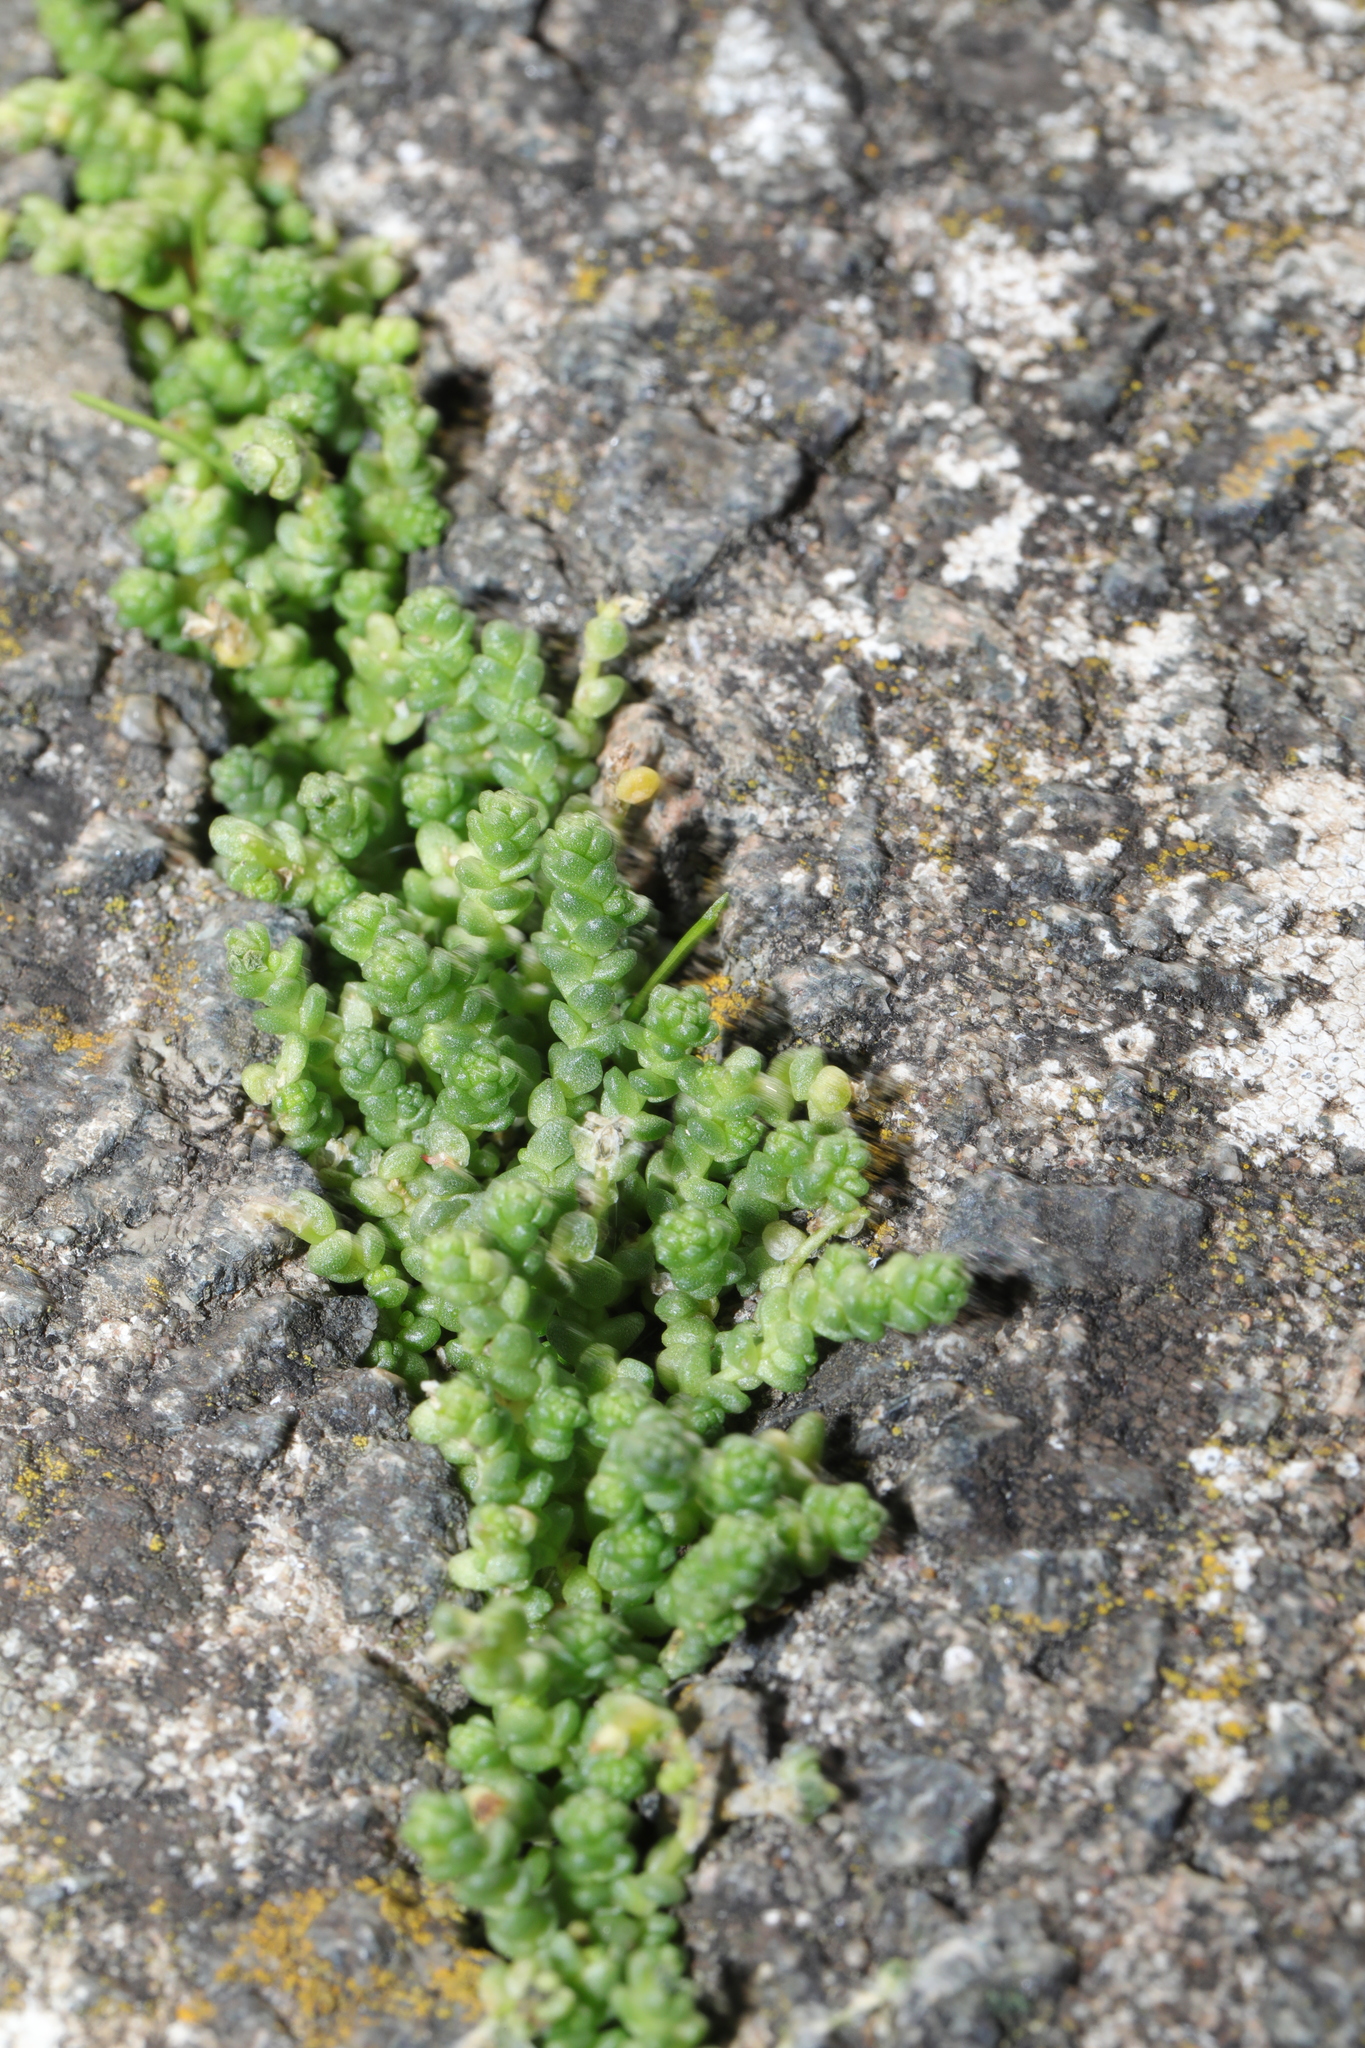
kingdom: Plantae
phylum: Tracheophyta
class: Magnoliopsida
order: Saxifragales
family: Crassulaceae
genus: Sedum
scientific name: Sedum acre
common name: Biting stonecrop
